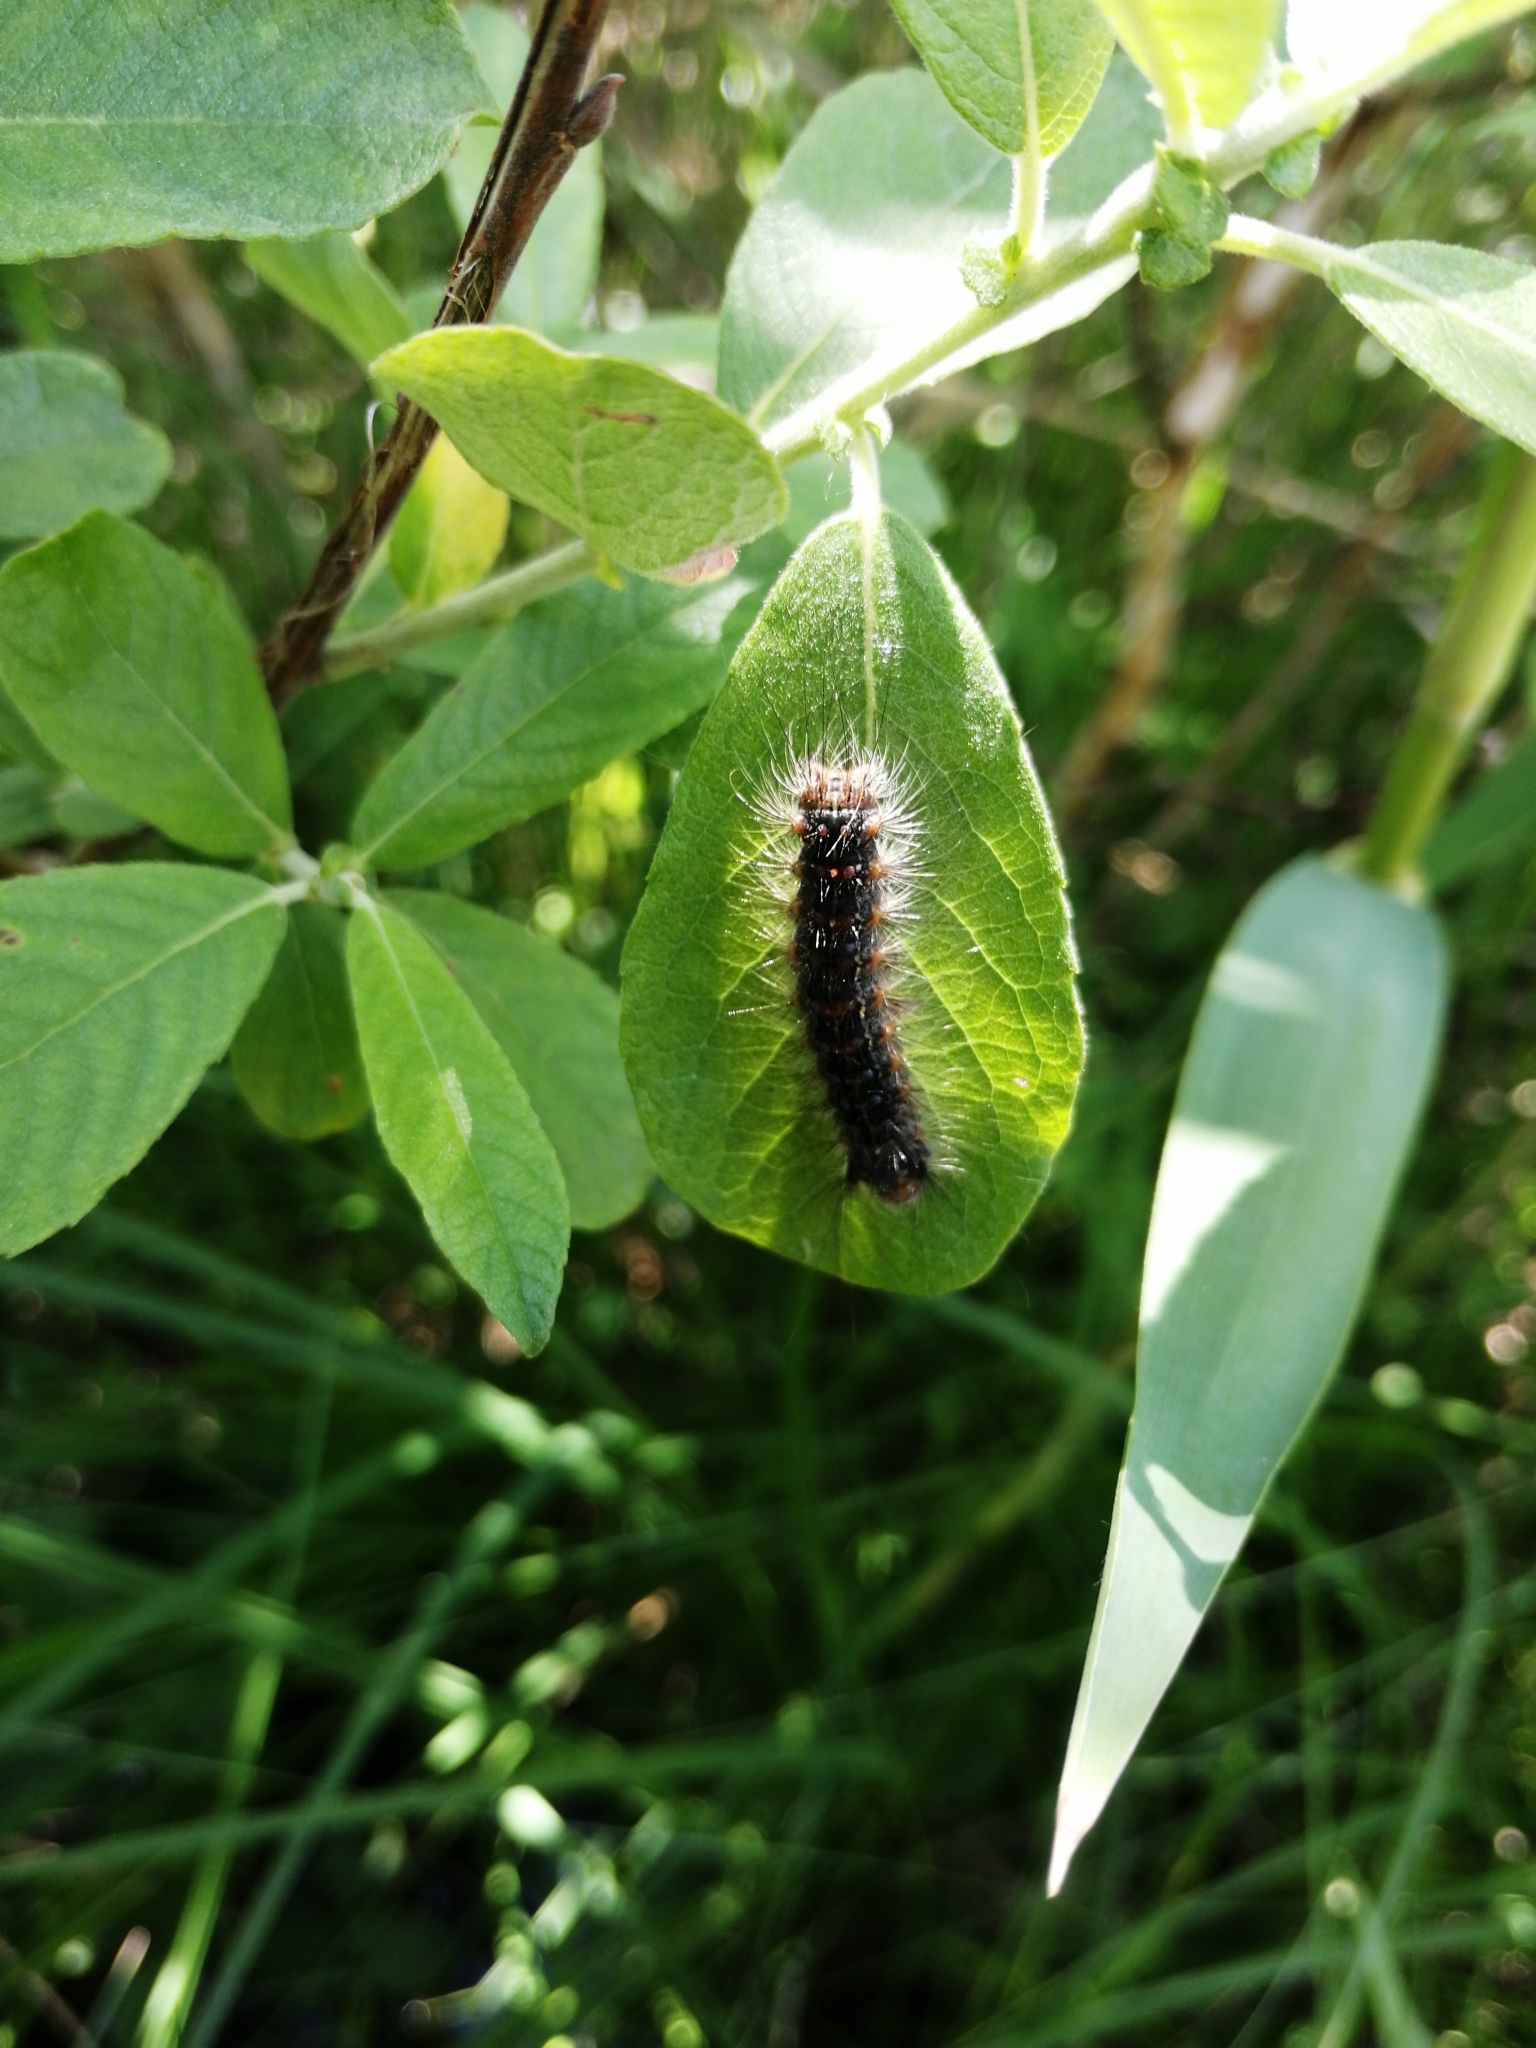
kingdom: Animalia
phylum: Arthropoda
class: Insecta
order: Lepidoptera
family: Erebidae
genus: Lymantria
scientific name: Lymantria dispar
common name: Gypsy moth
